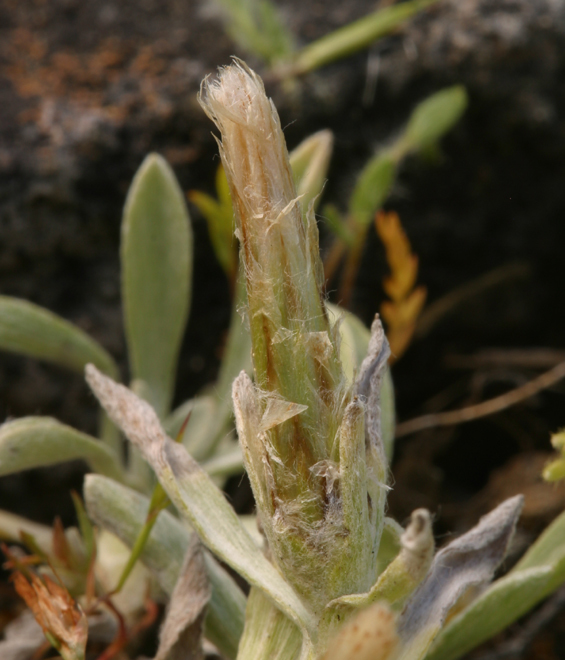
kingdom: Plantae
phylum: Tracheophyta
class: Magnoliopsida
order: Asterales
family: Asteraceae
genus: Antennaria
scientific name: Antennaria dimorpha
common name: Cushion pussytoes
